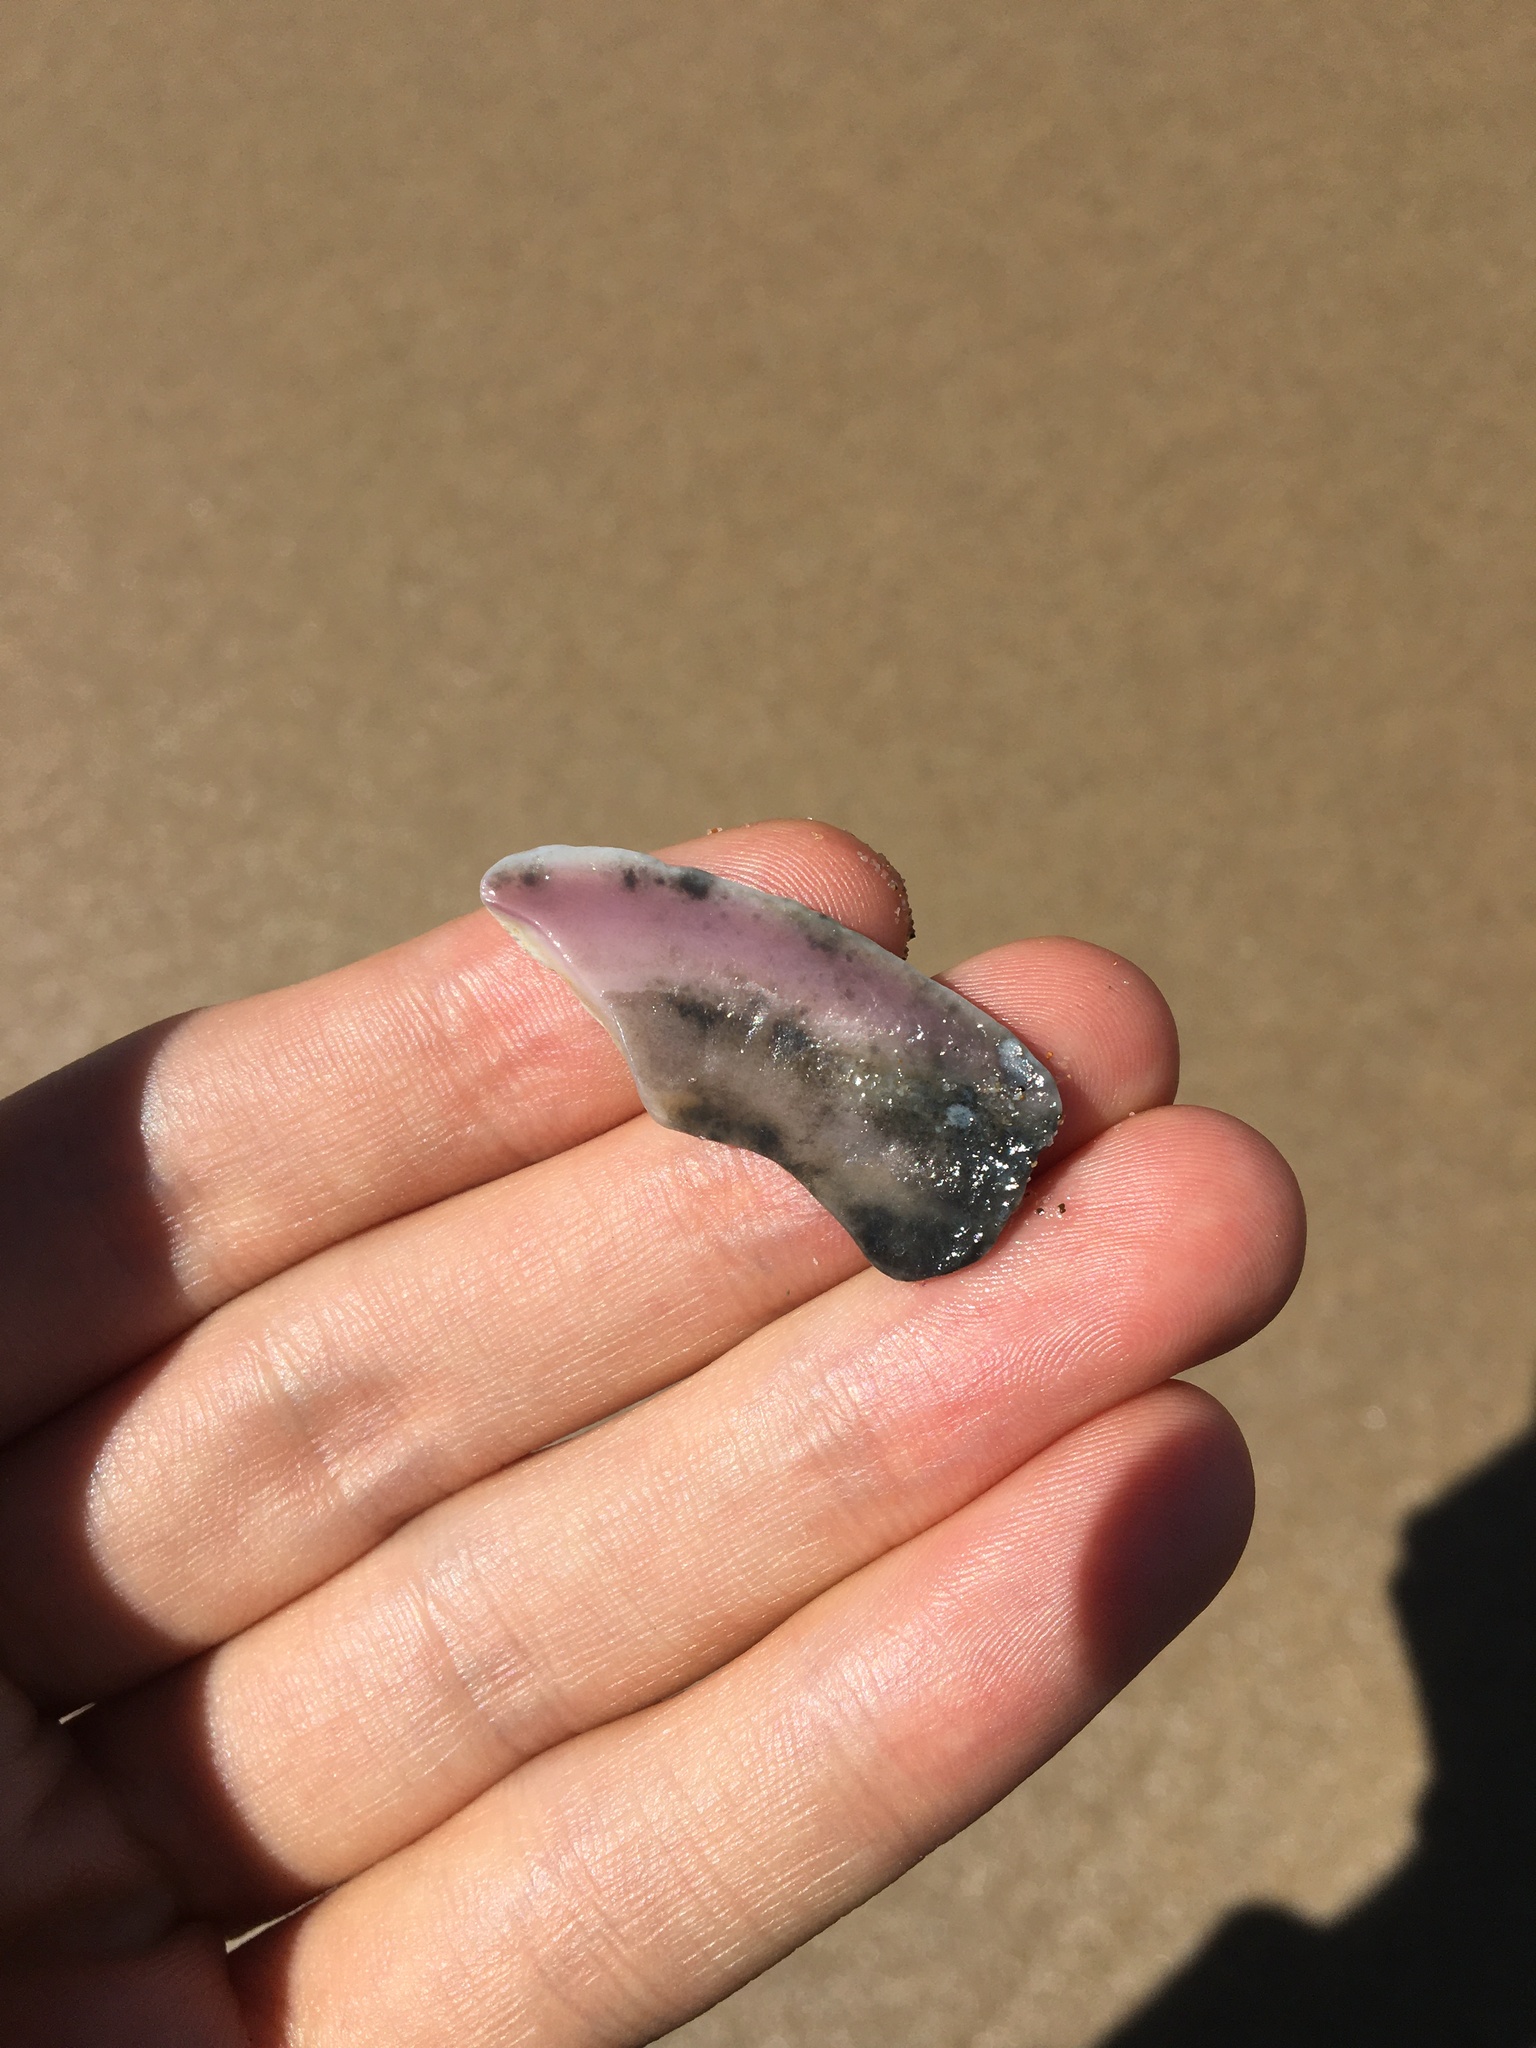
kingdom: Animalia
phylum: Mollusca
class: Bivalvia
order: Cardiida
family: Donacidae
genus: Latona
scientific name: Latona deltoides
